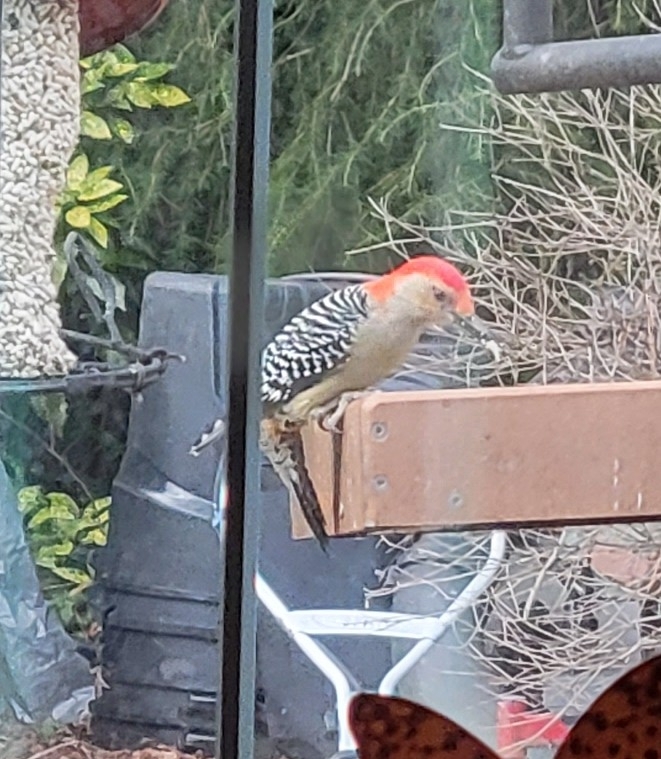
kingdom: Animalia
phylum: Chordata
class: Aves
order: Piciformes
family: Picidae
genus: Melanerpes
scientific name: Melanerpes carolinus
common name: Red-bellied woodpecker
